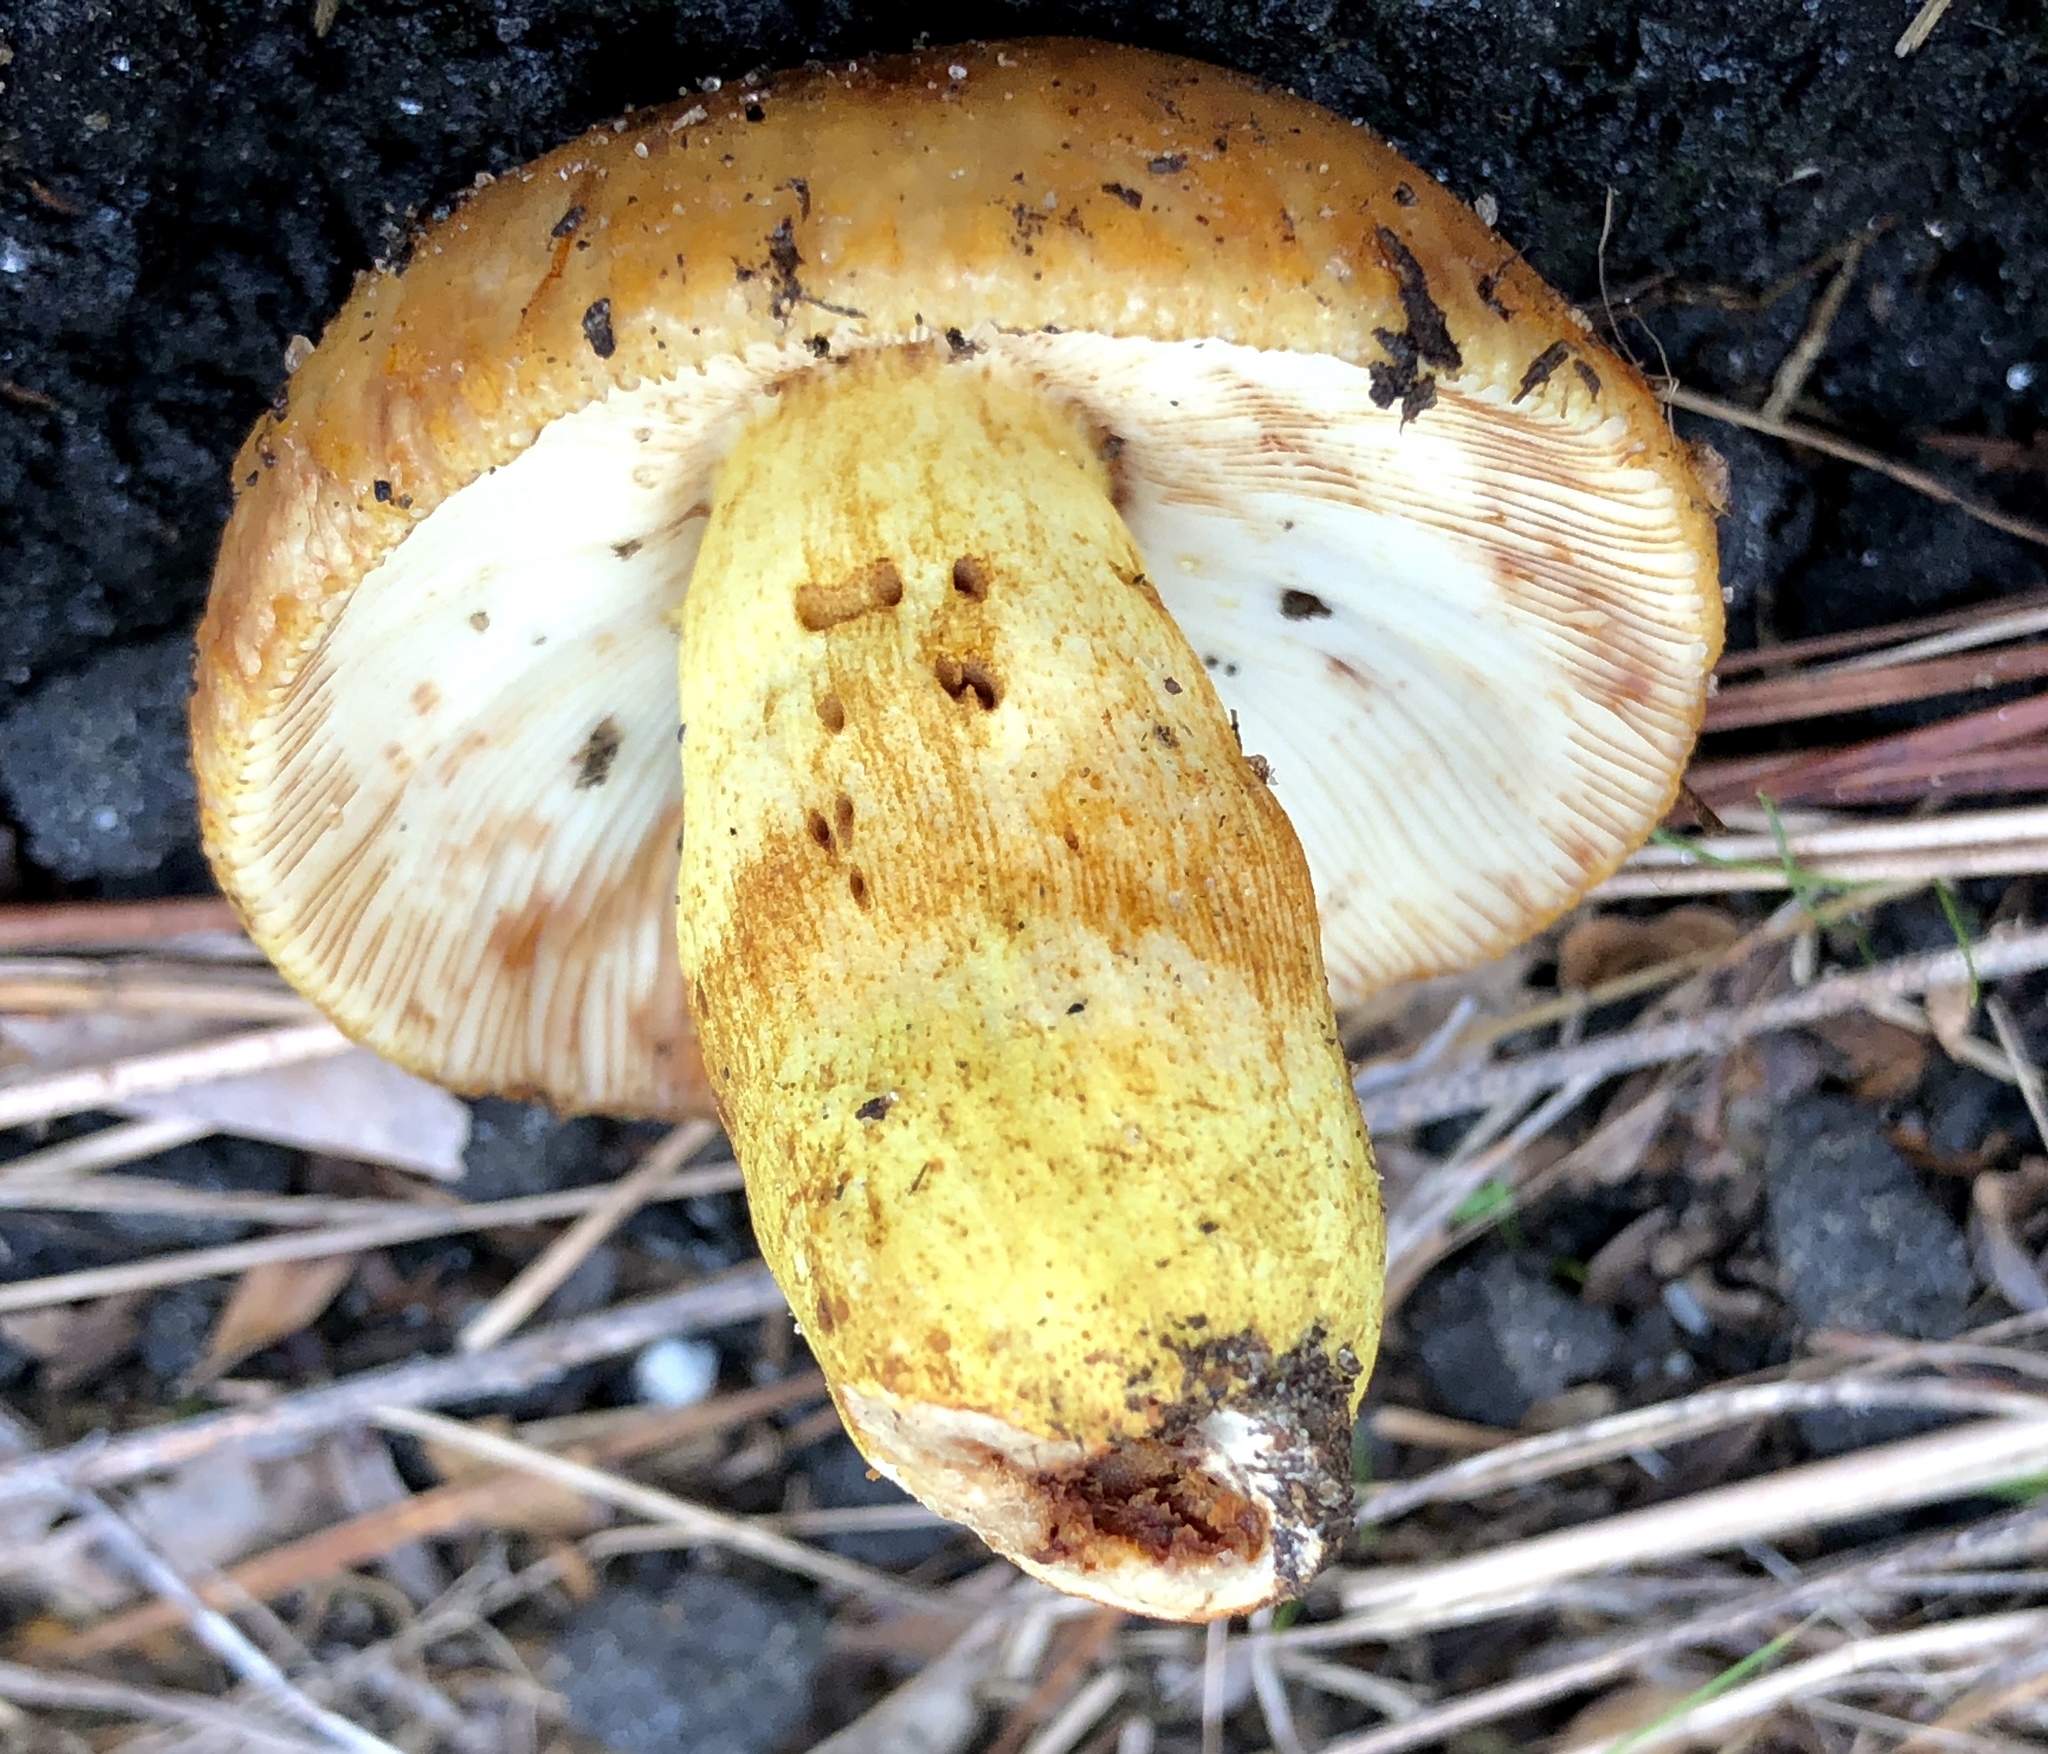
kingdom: Fungi
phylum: Basidiomycota
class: Agaricomycetes
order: Russulales
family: Russulaceae
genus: Russula
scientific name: Russula grata
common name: Bitter almond brittlegill
